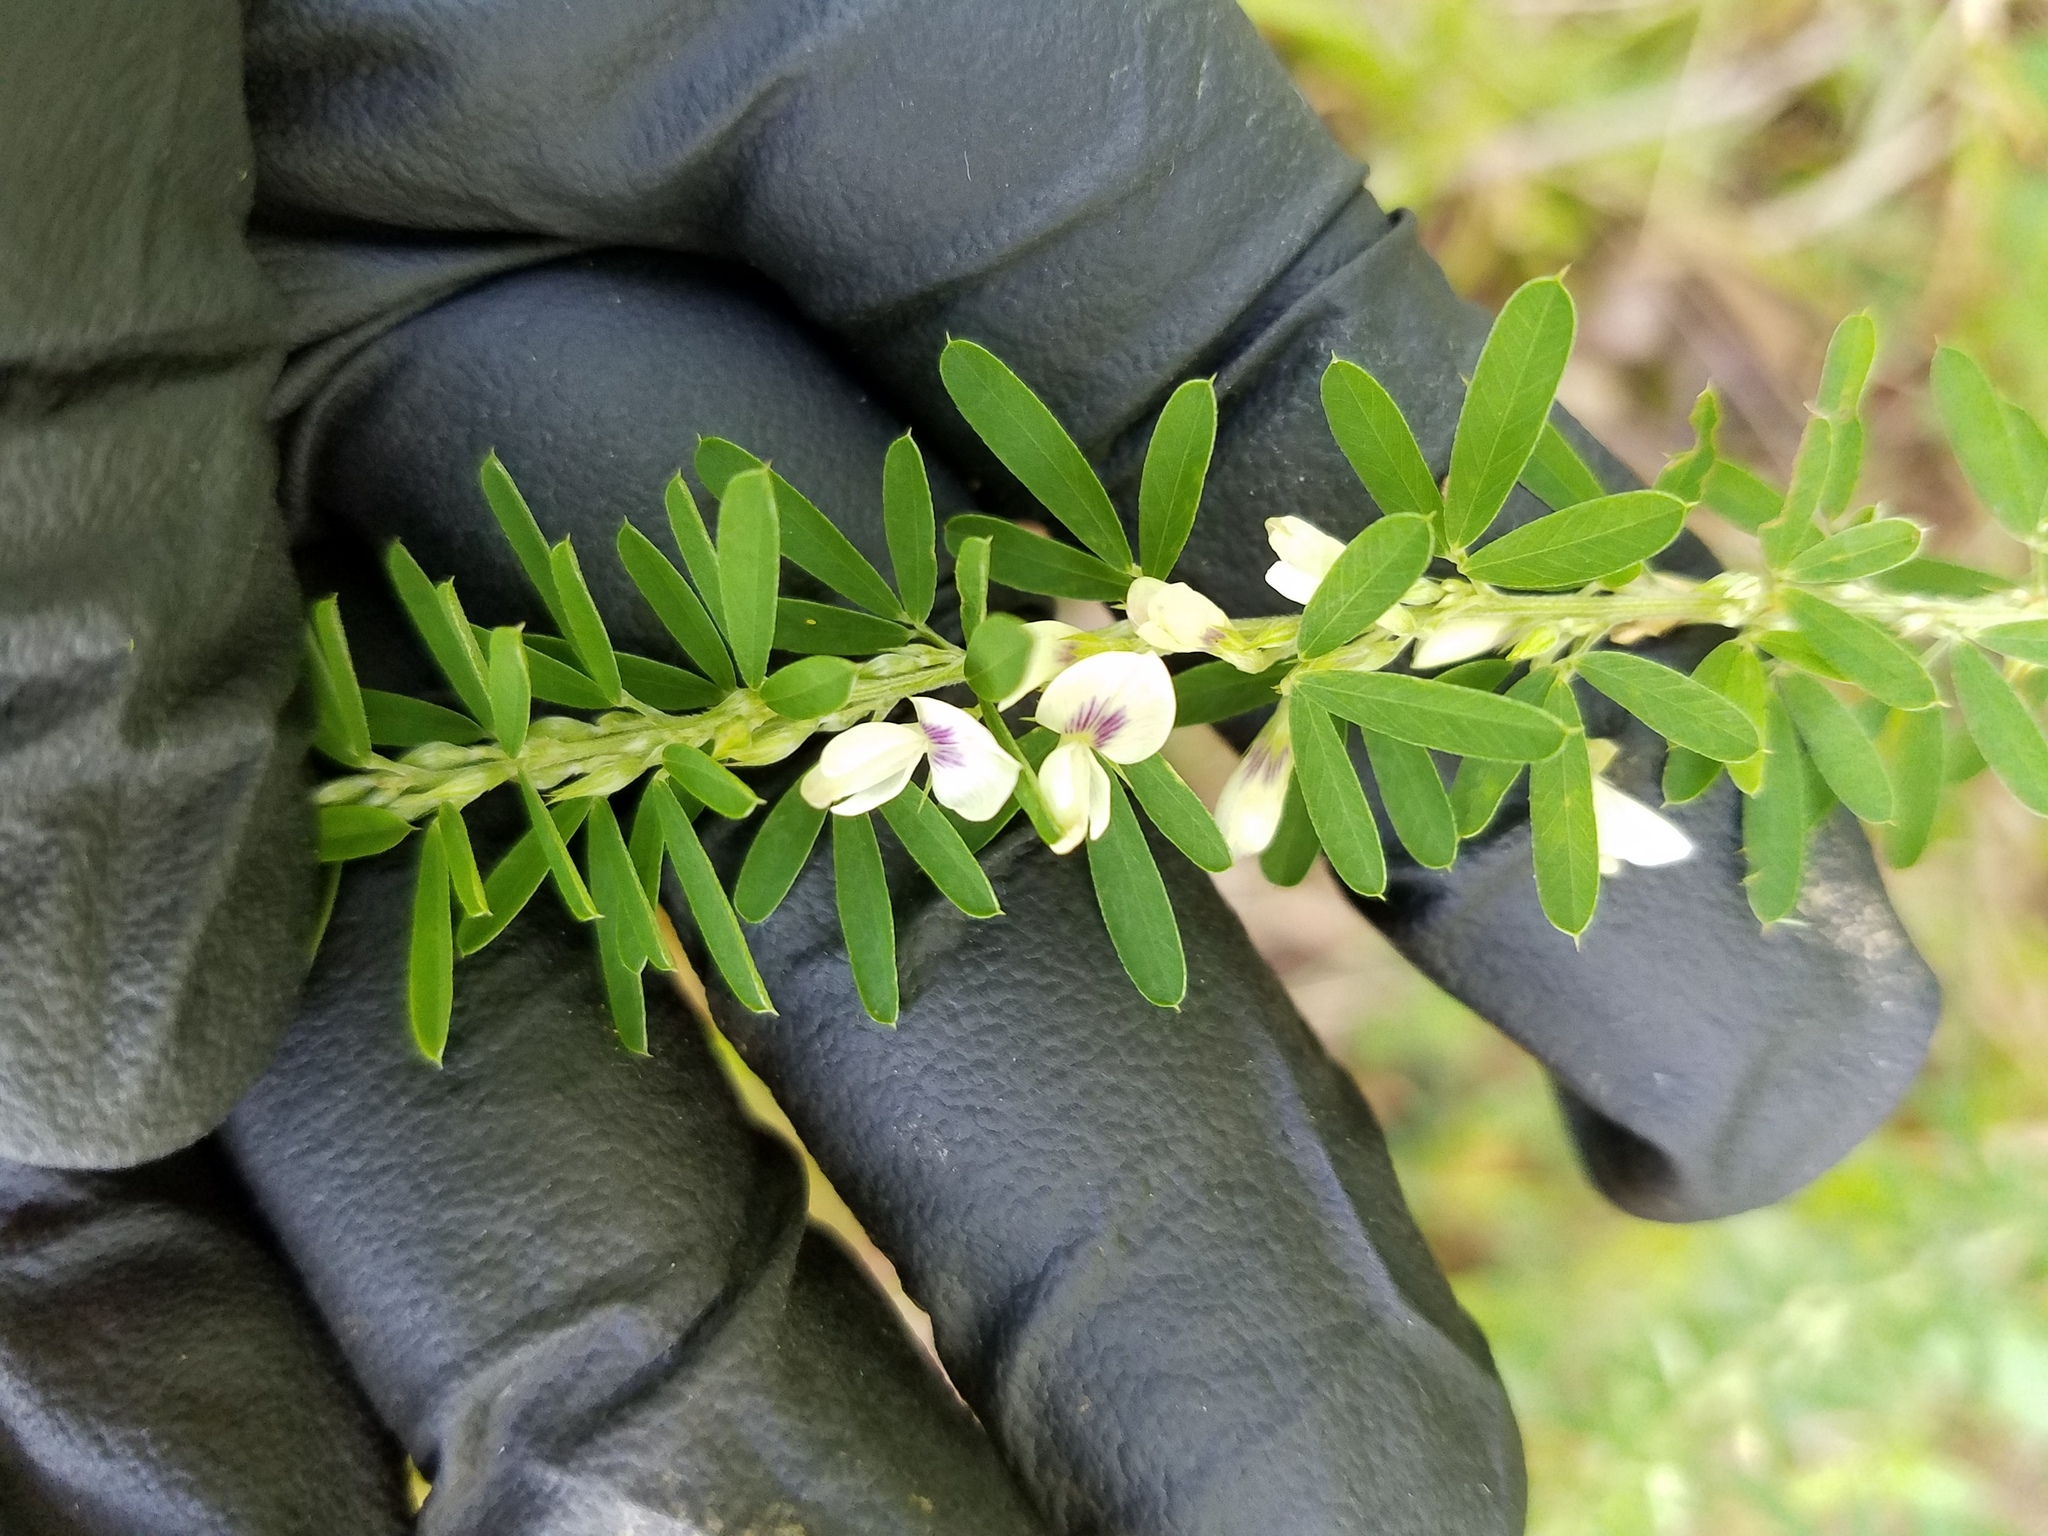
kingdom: Plantae
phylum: Tracheophyta
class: Magnoliopsida
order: Fabales
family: Fabaceae
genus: Lespedeza
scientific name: Lespedeza cuneata
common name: Chinese bush-clover
